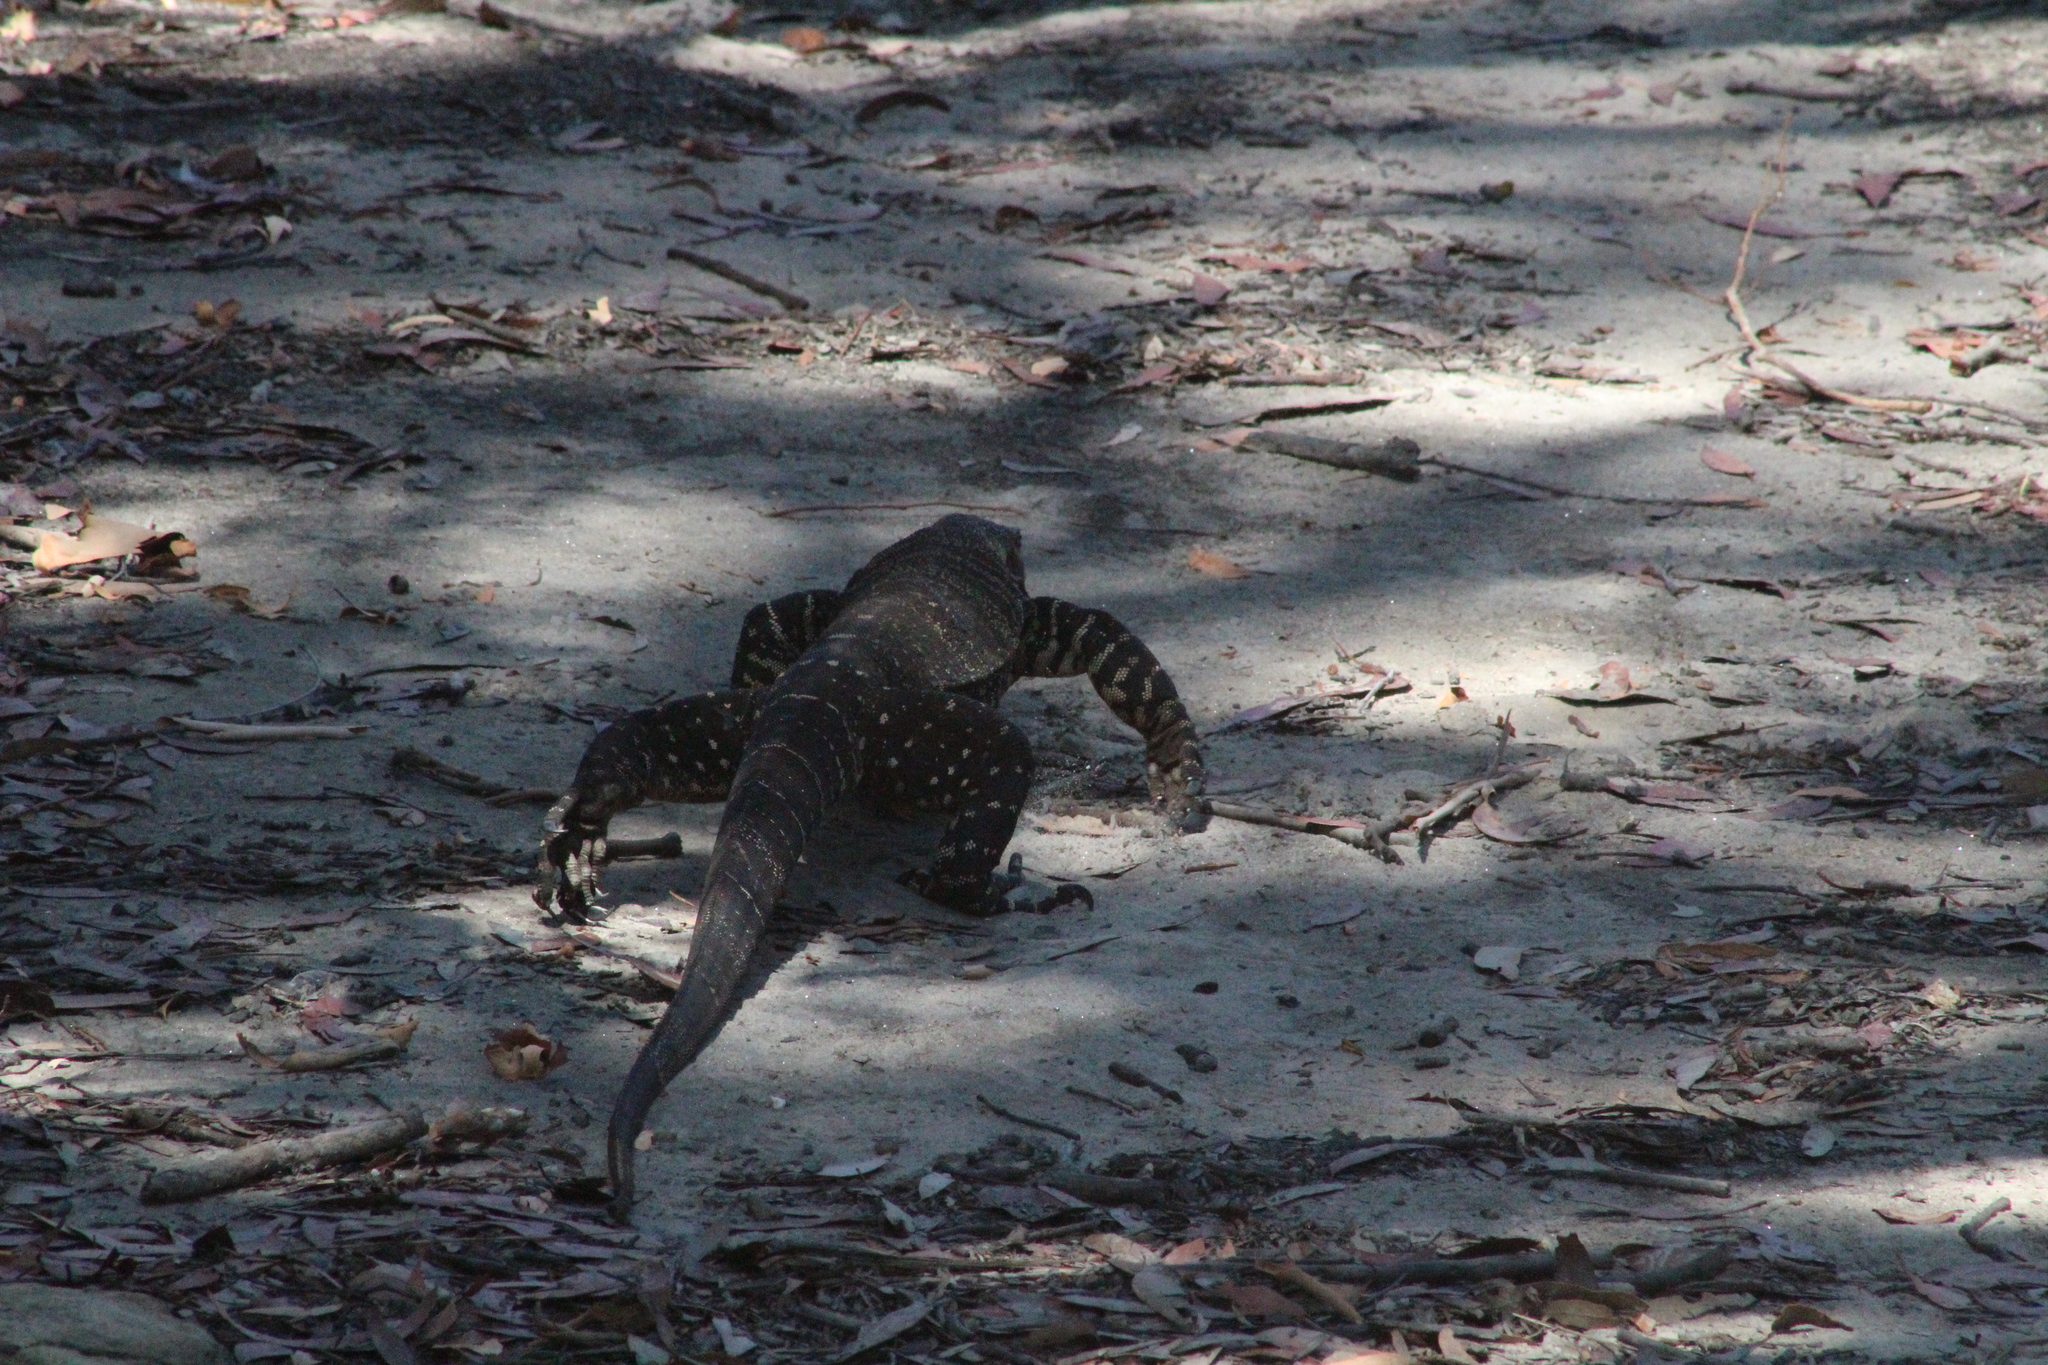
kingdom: Animalia
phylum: Chordata
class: Squamata
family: Varanidae
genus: Varanus
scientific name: Varanus varius
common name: Lace monitor
